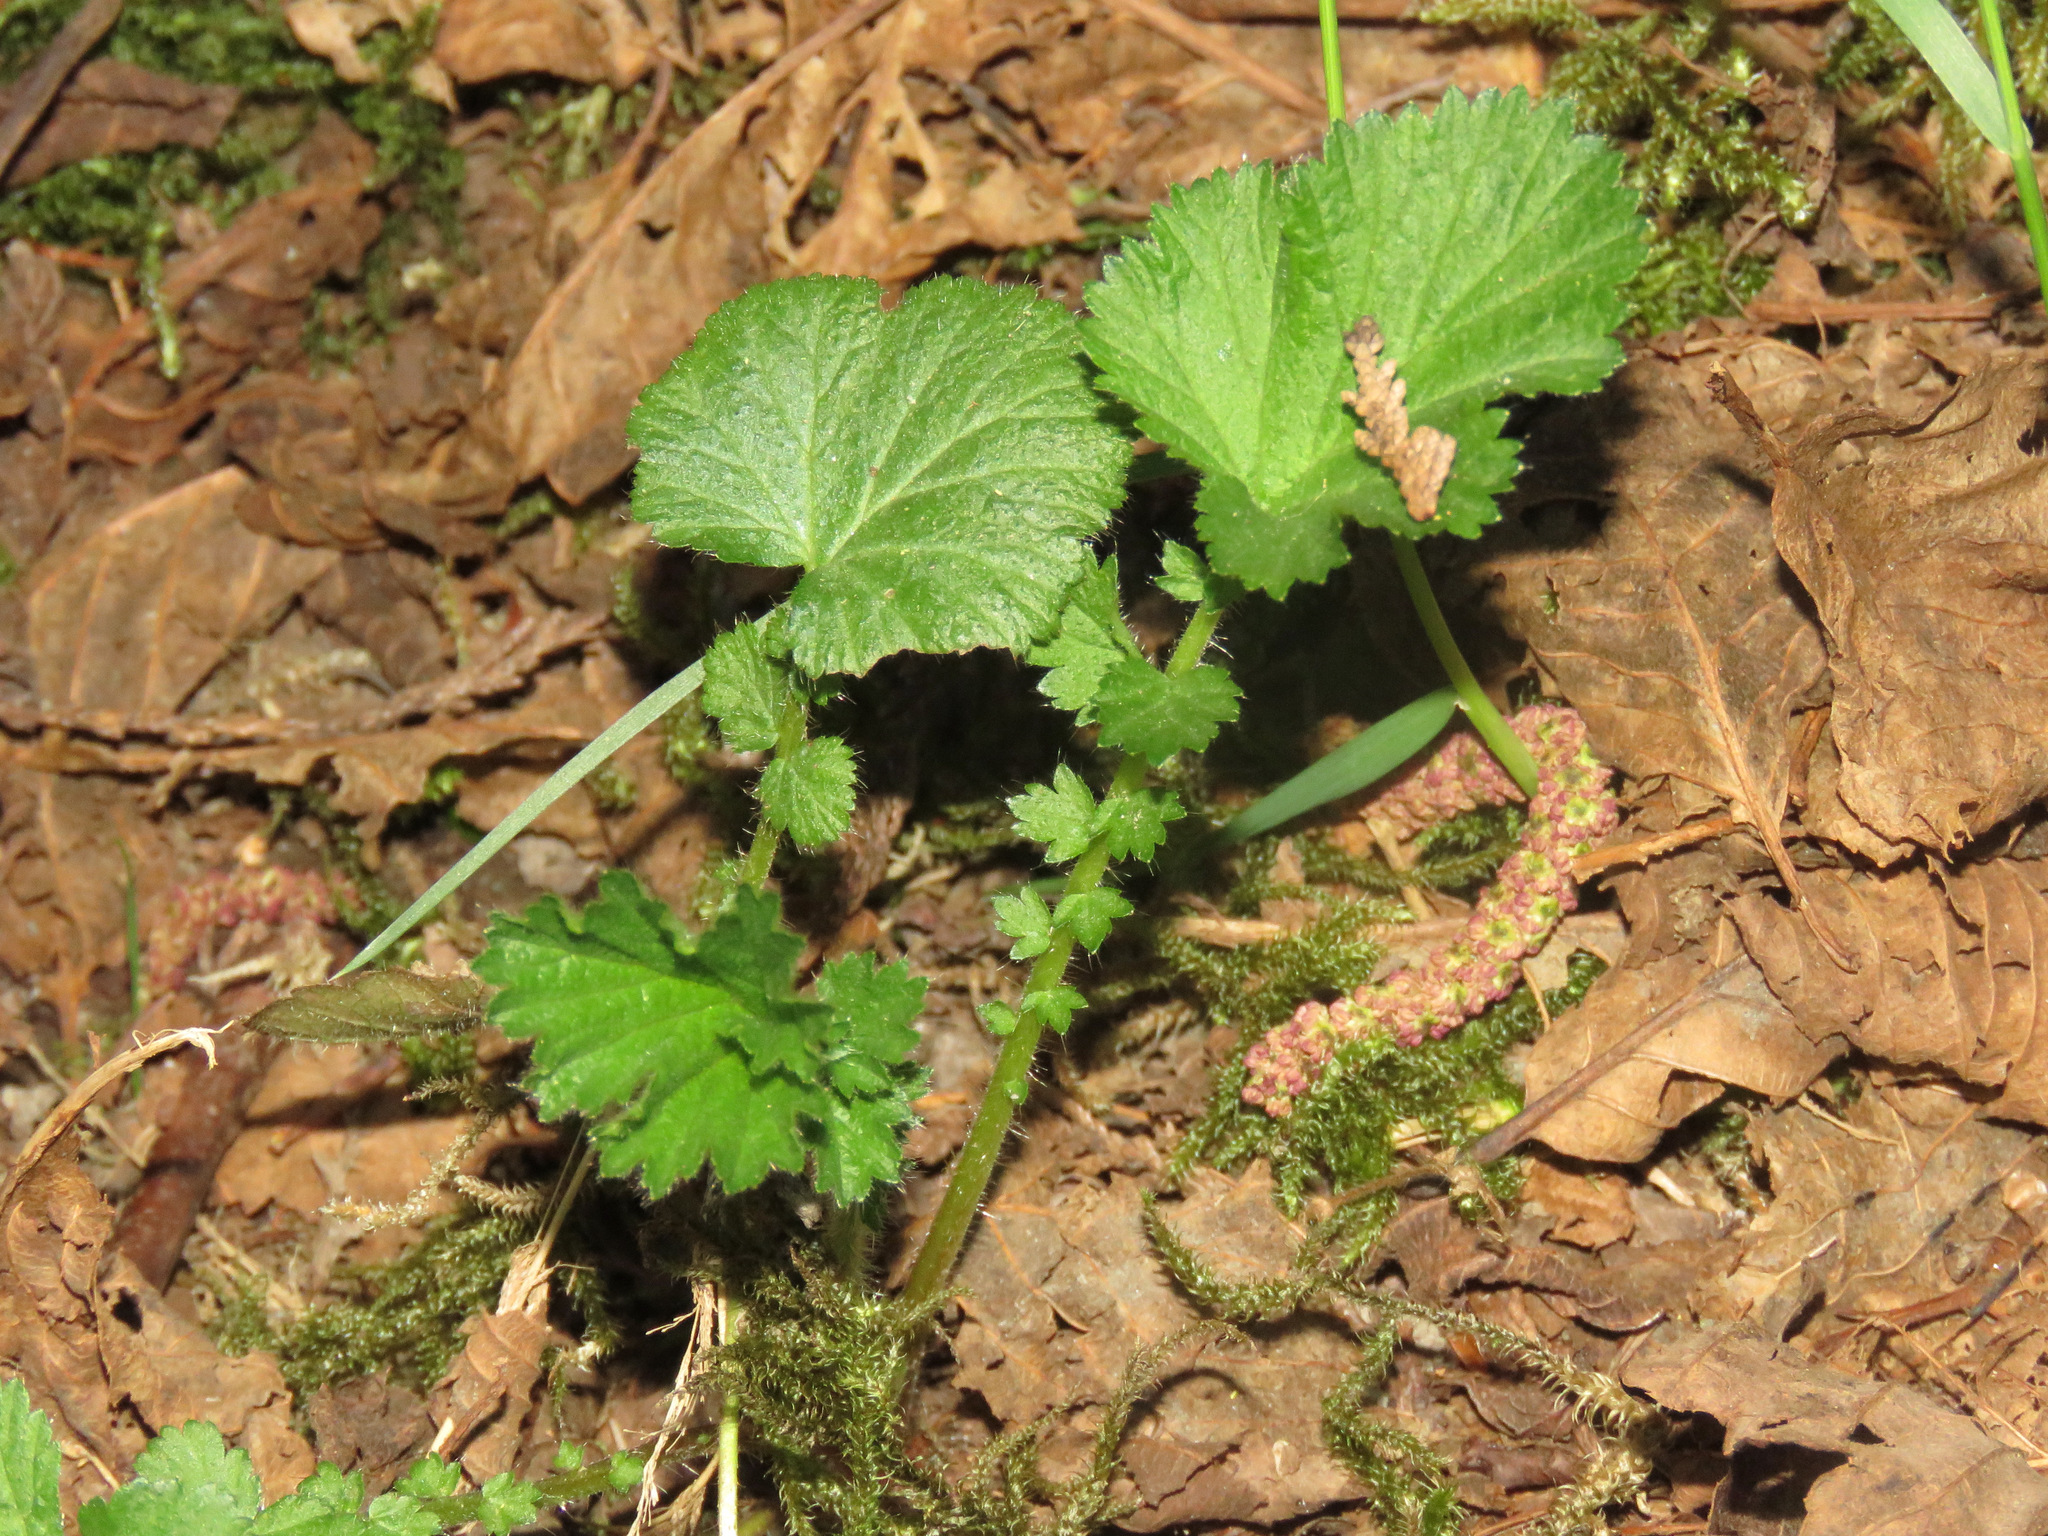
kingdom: Plantae
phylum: Tracheophyta
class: Magnoliopsida
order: Rosales
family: Rosaceae
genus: Geum
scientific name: Geum macrophyllum
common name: Large-leaved avens
